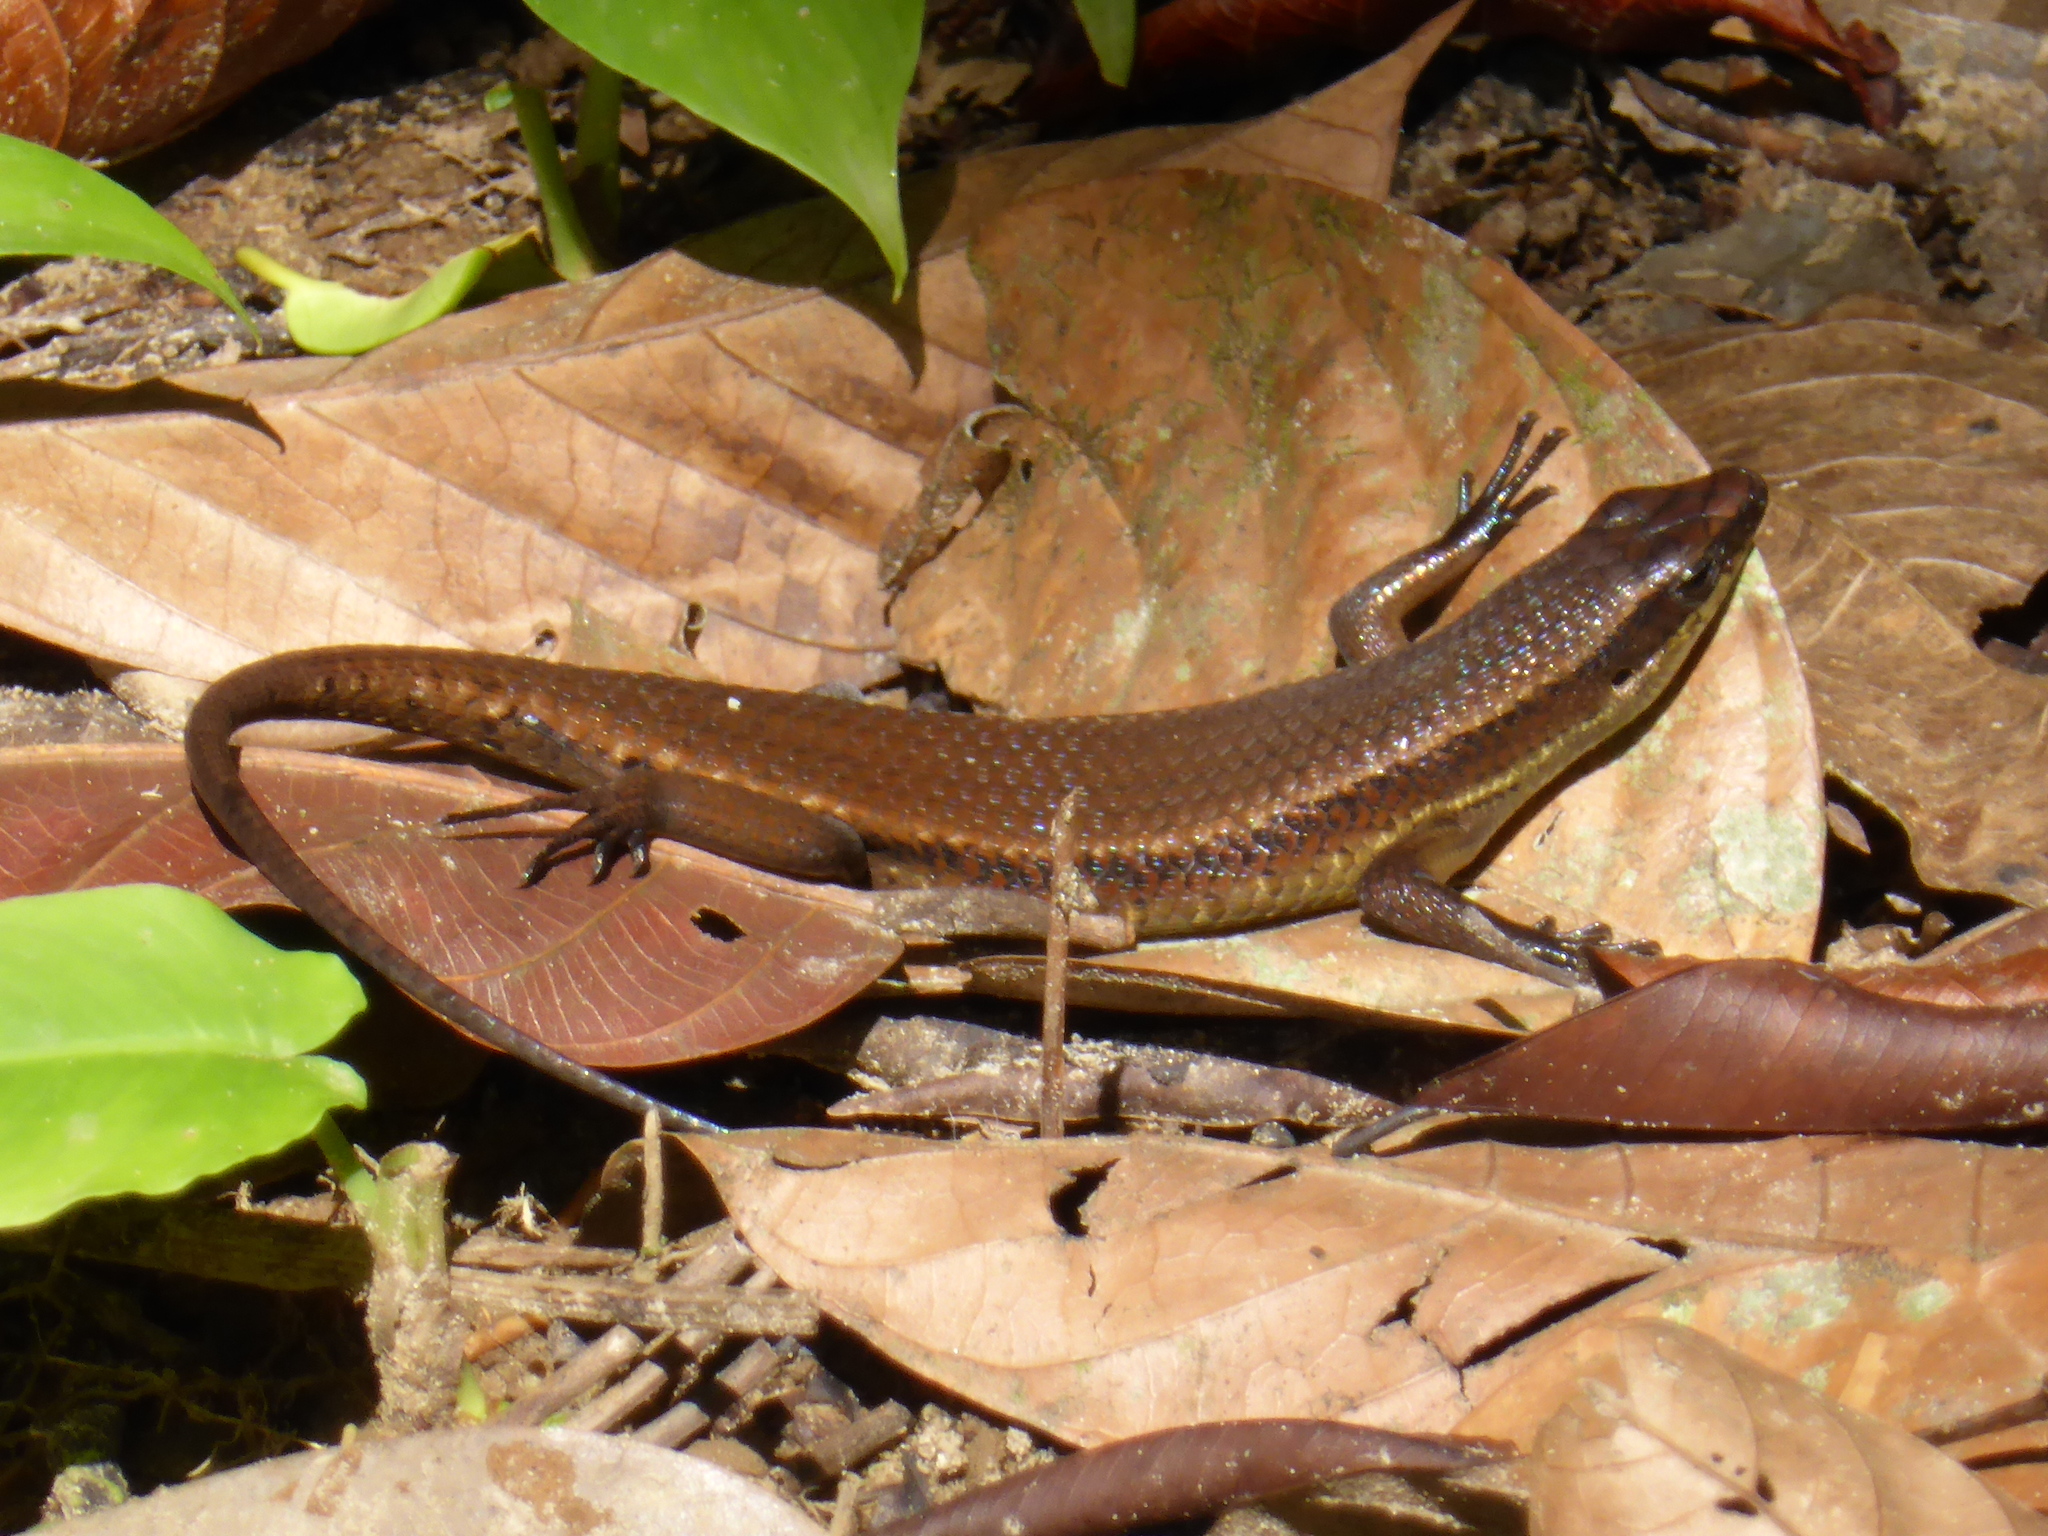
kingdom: Animalia
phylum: Chordata
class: Squamata
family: Scincidae
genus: Eutropis
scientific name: Eutropis lewisi
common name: Lewis’ mabuya
